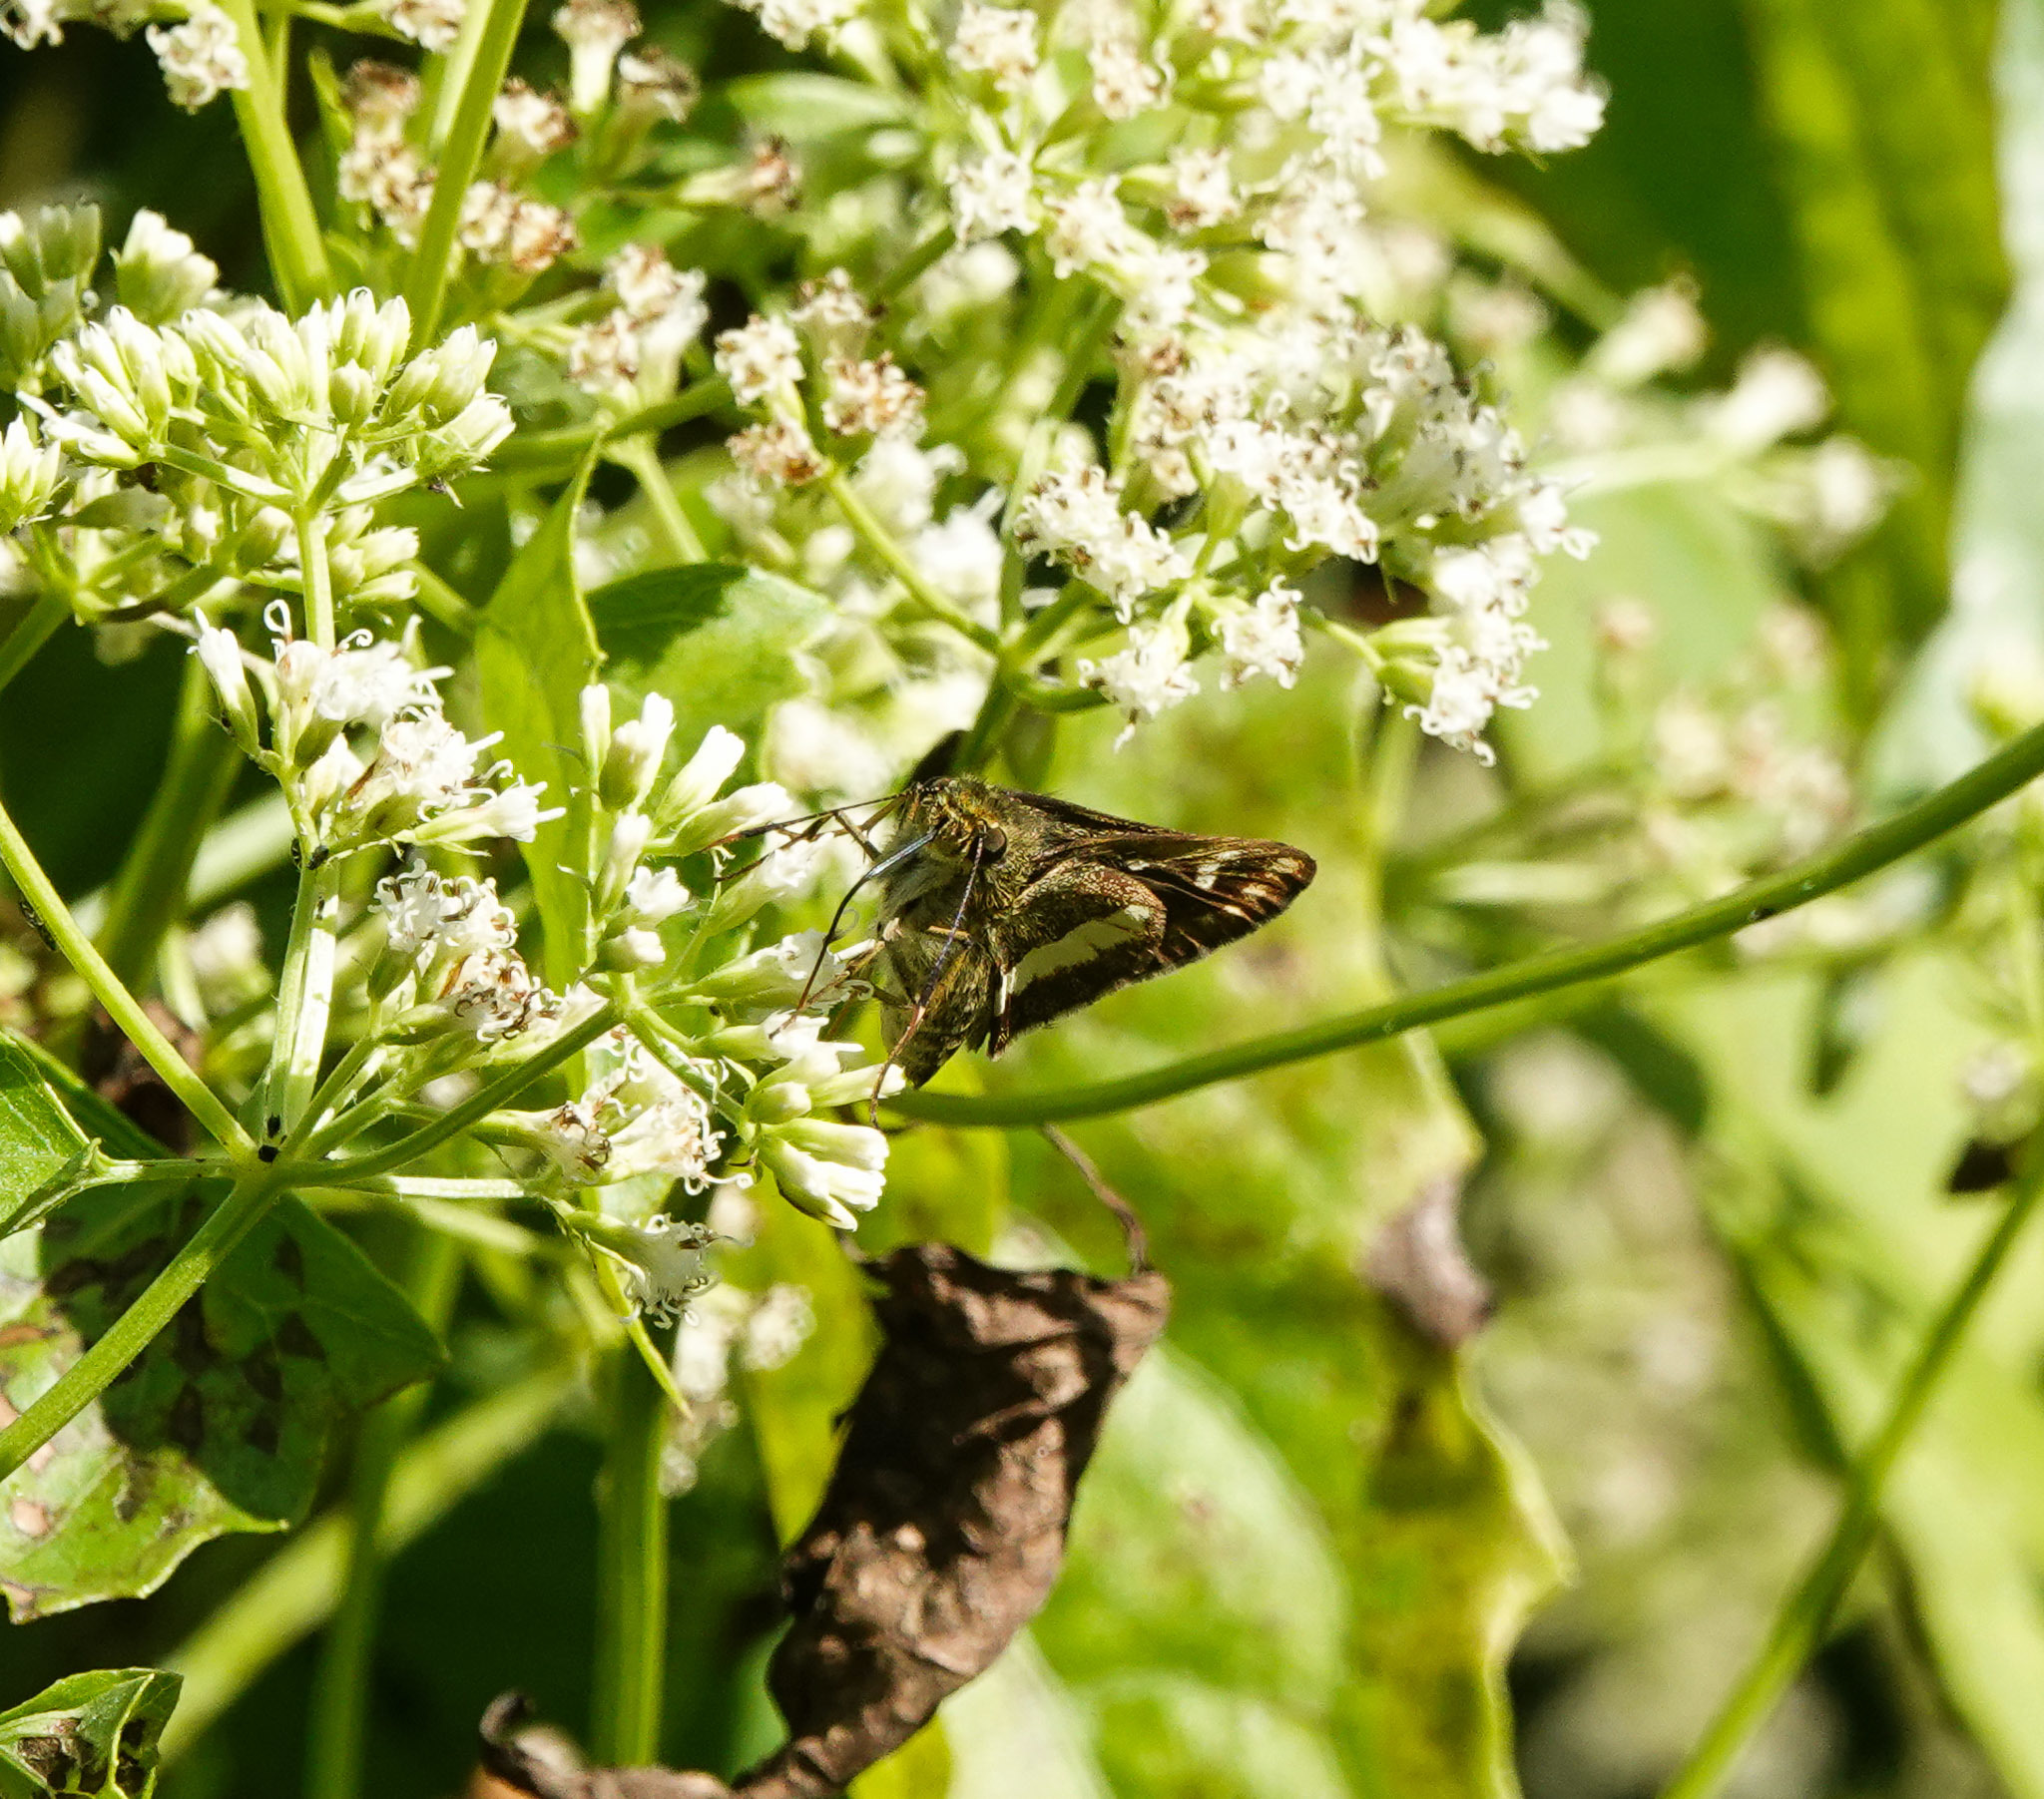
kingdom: Animalia
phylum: Arthropoda
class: Insecta
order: Lepidoptera
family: Hesperiidae
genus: Halpe
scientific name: Halpe zema
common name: Dark banded ace
